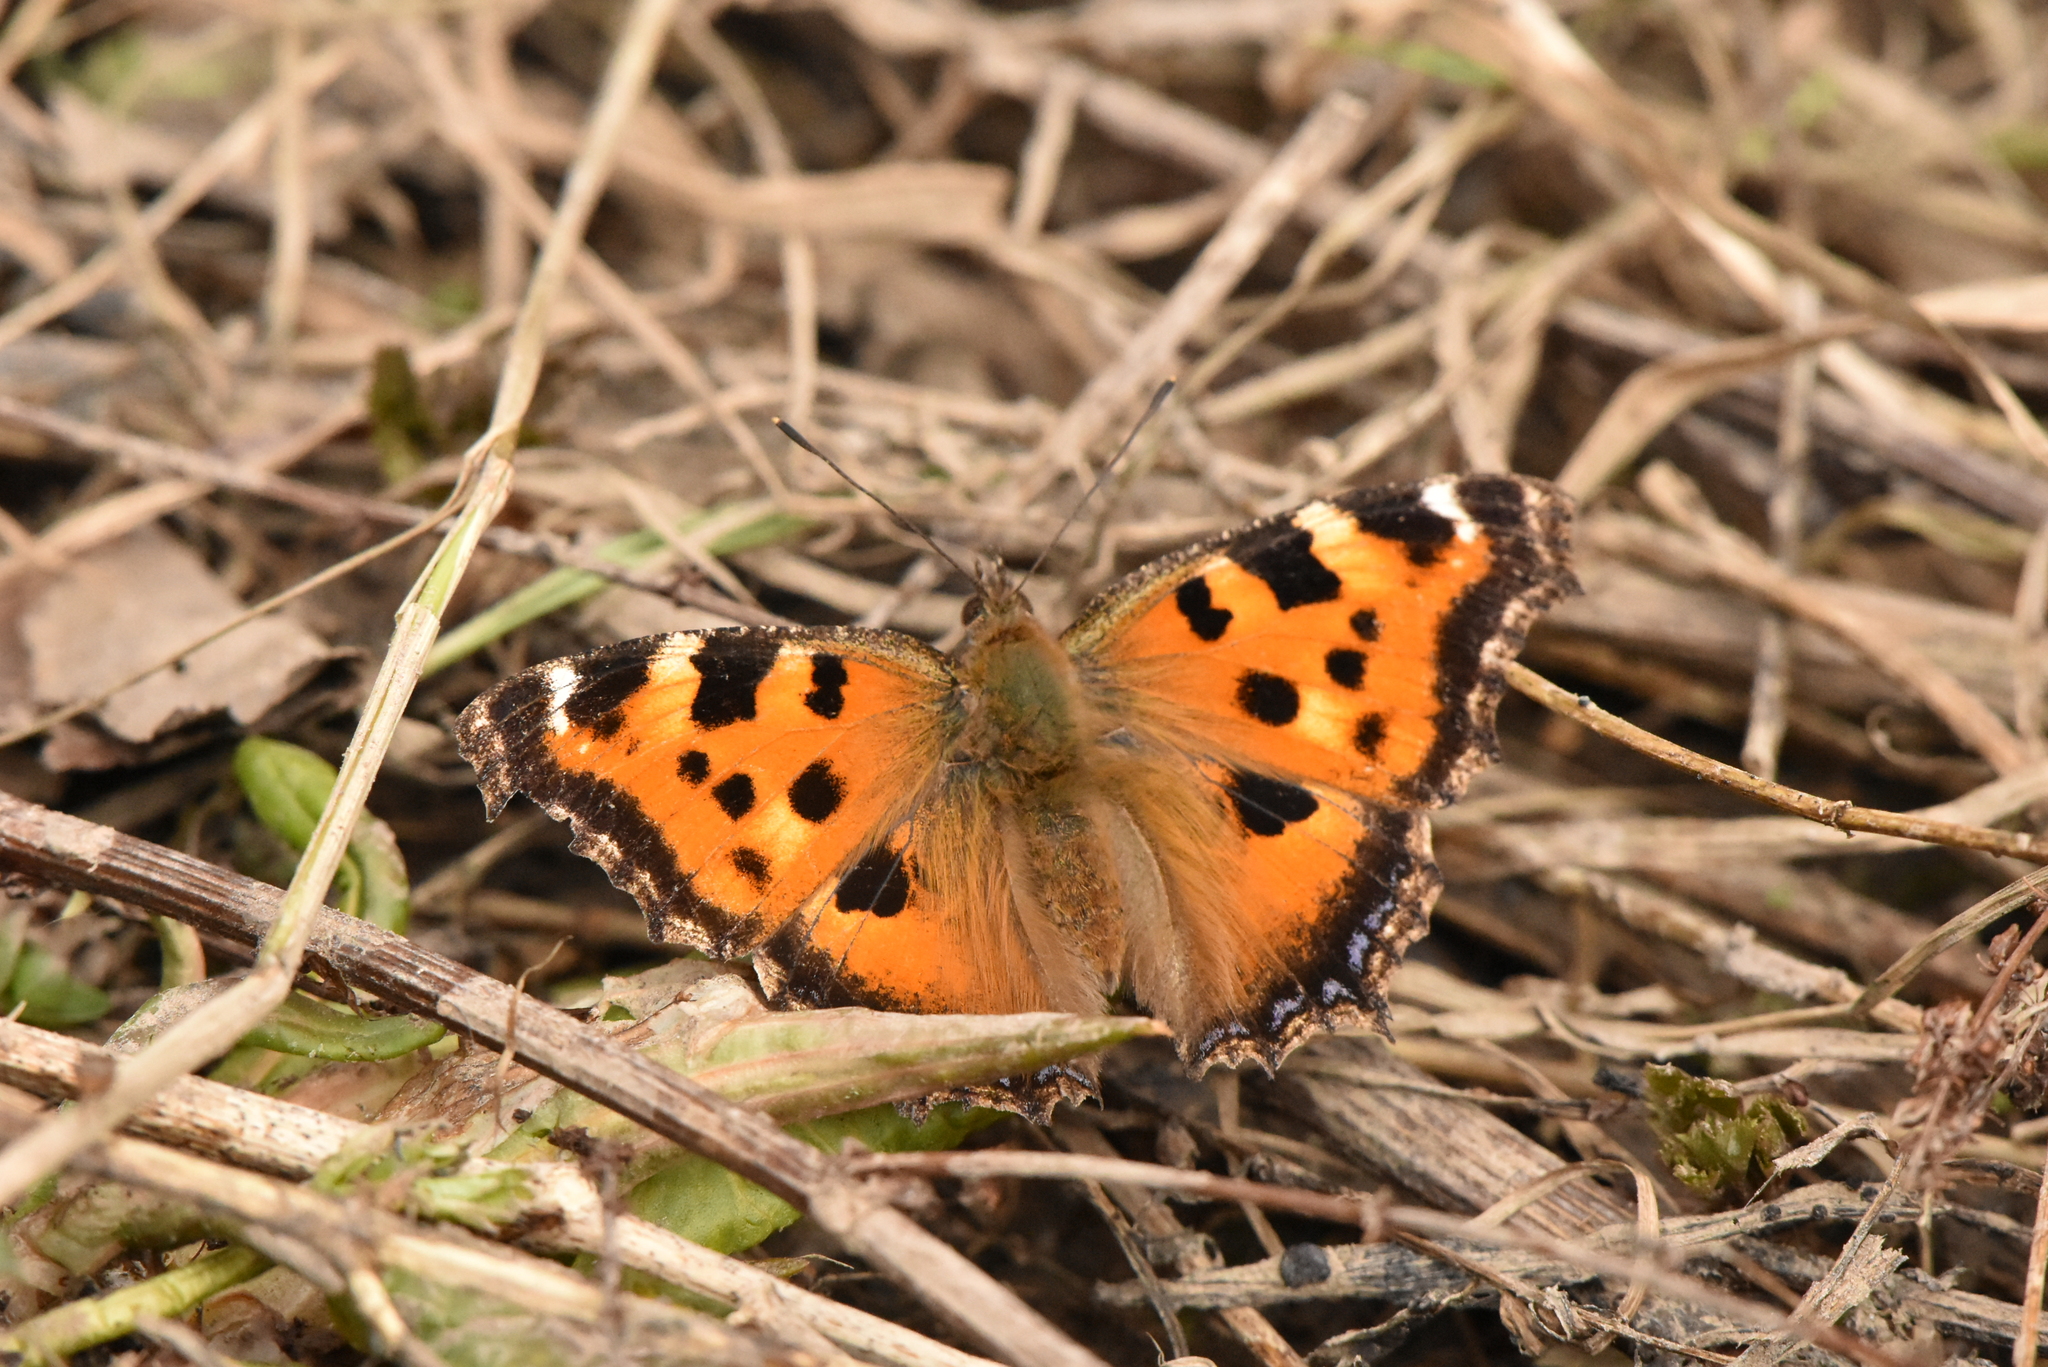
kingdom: Animalia
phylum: Arthropoda
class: Insecta
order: Lepidoptera
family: Nymphalidae
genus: Nymphalis
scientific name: Nymphalis xanthomelas
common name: Scarce tortoiseshell
